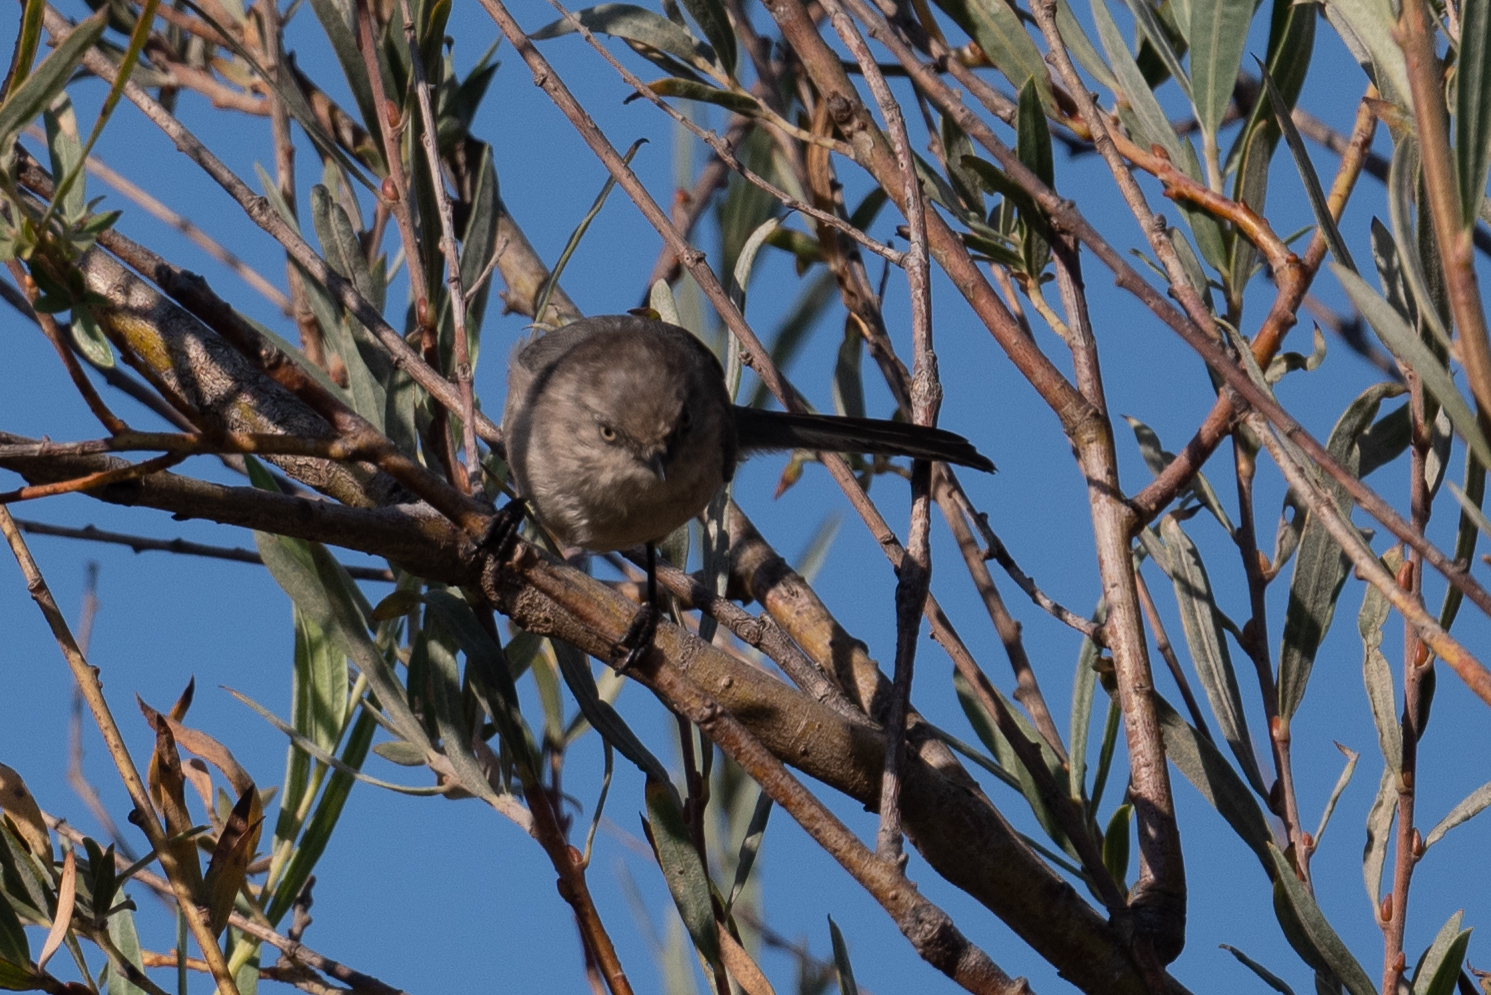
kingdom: Animalia
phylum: Chordata
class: Aves
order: Passeriformes
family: Aegithalidae
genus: Psaltriparus
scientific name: Psaltriparus minimus
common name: American bushtit
